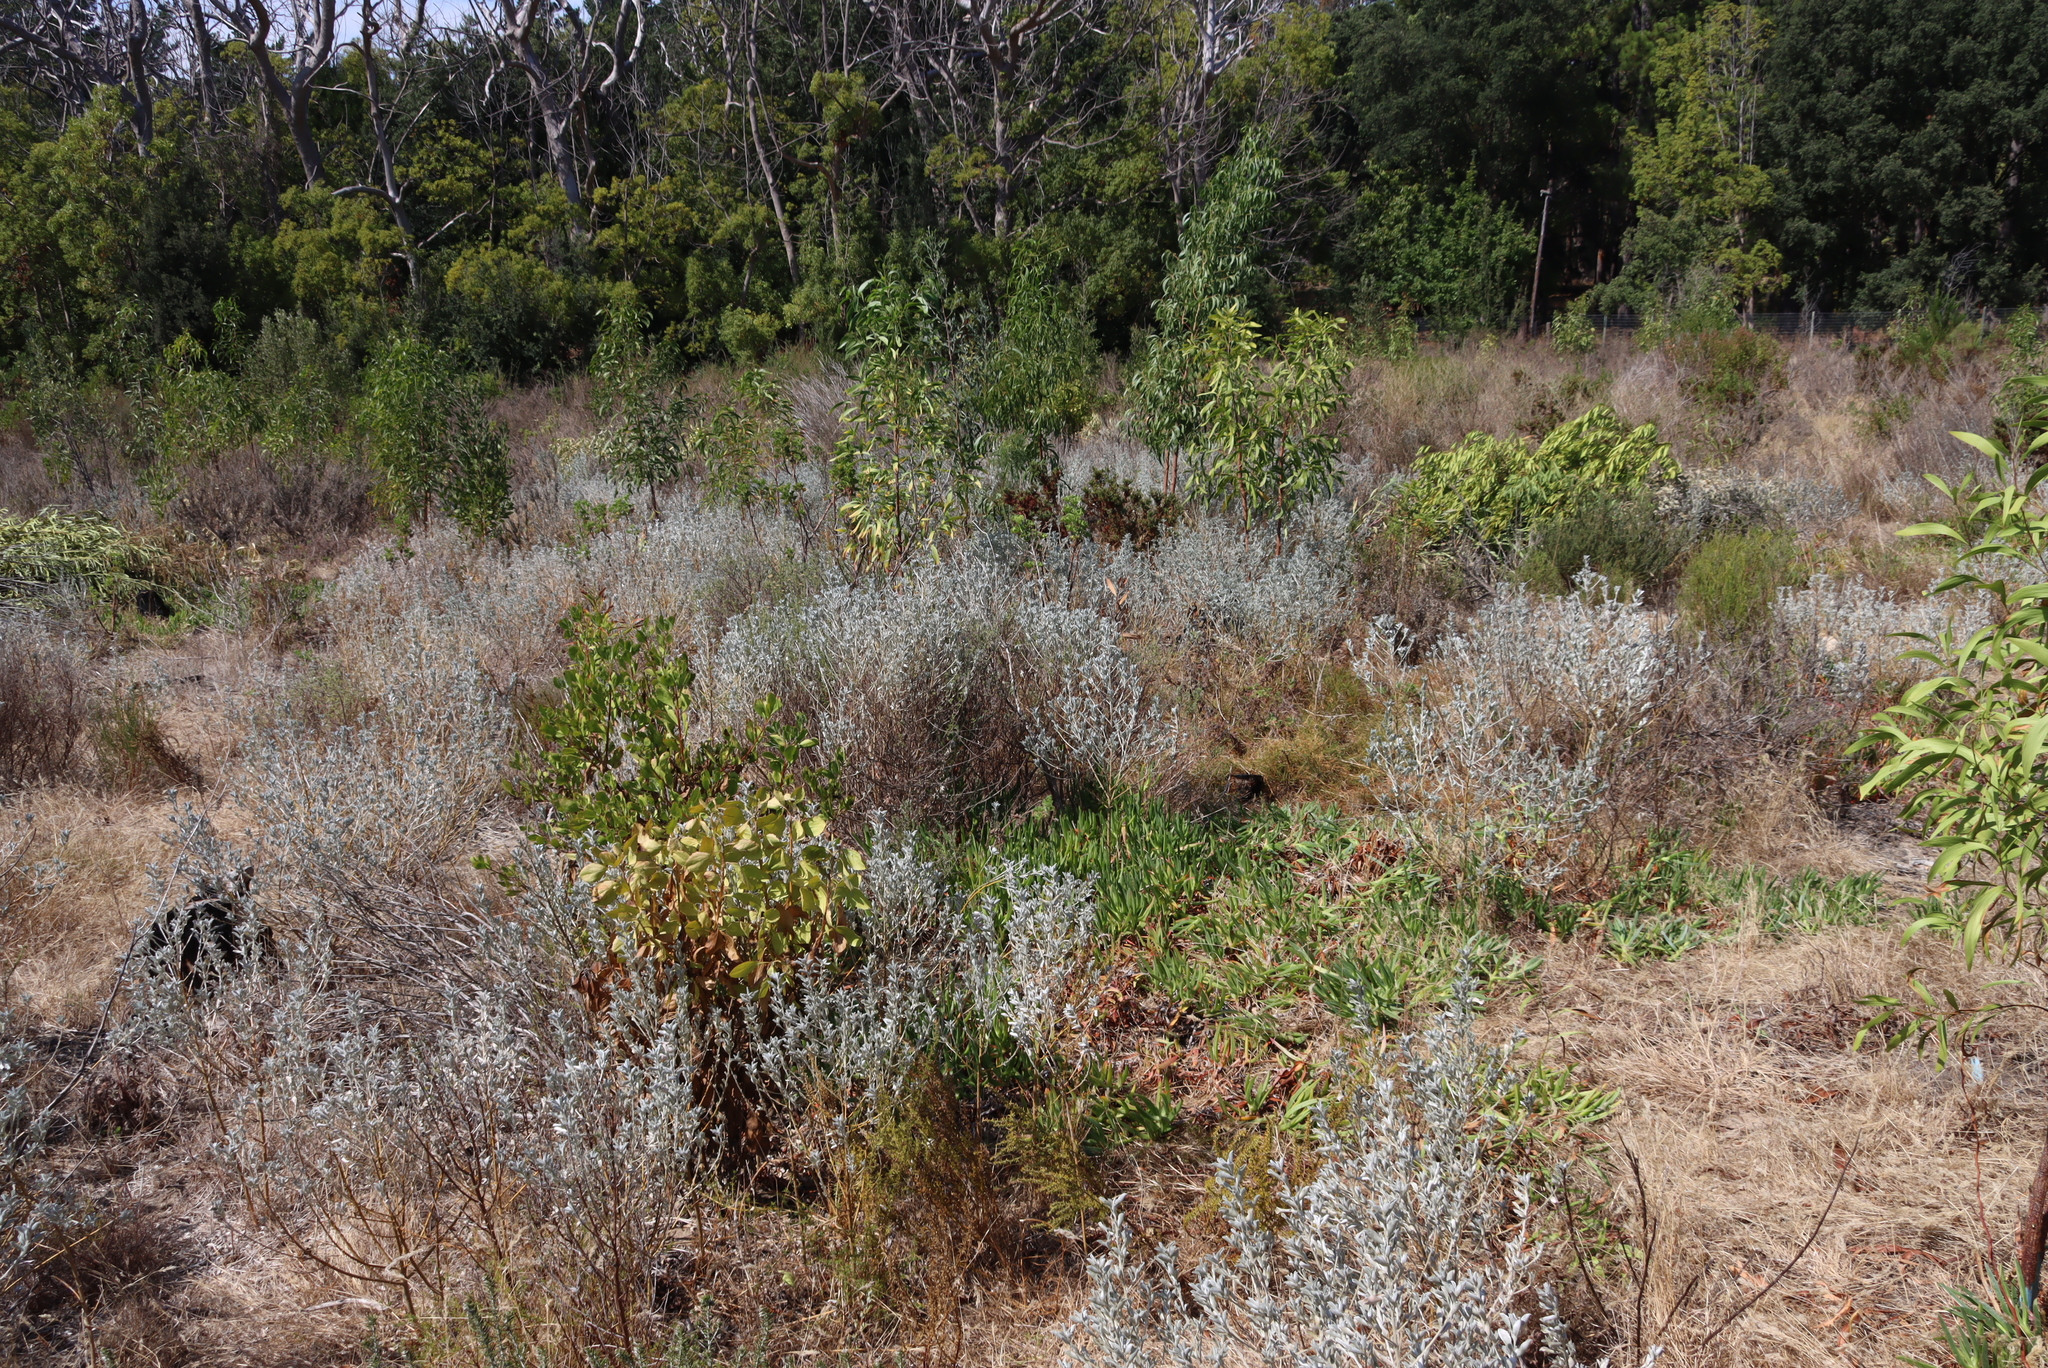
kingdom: Plantae
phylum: Tracheophyta
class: Magnoliopsida
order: Fabales
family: Fabaceae
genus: Podalyria
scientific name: Podalyria sericea
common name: Silver podalyria
